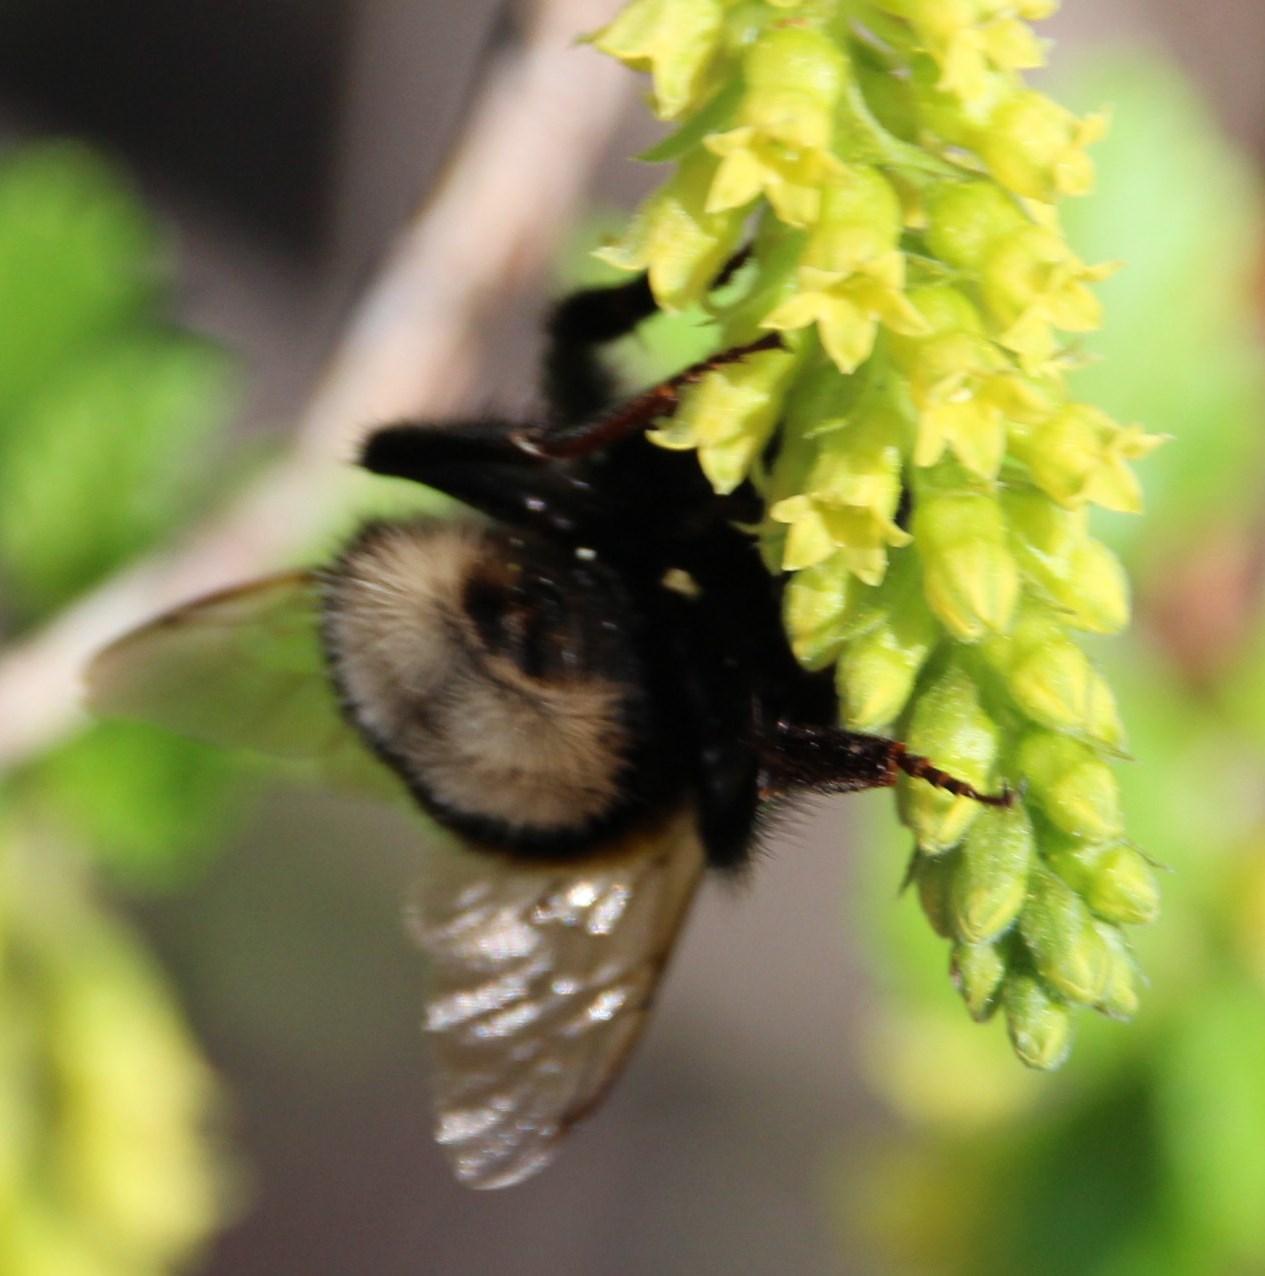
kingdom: Animalia
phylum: Arthropoda
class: Insecta
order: Hymenoptera
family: Apidae
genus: Bombus
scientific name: Bombus terrestris
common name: Buff-tailed bumblebee
